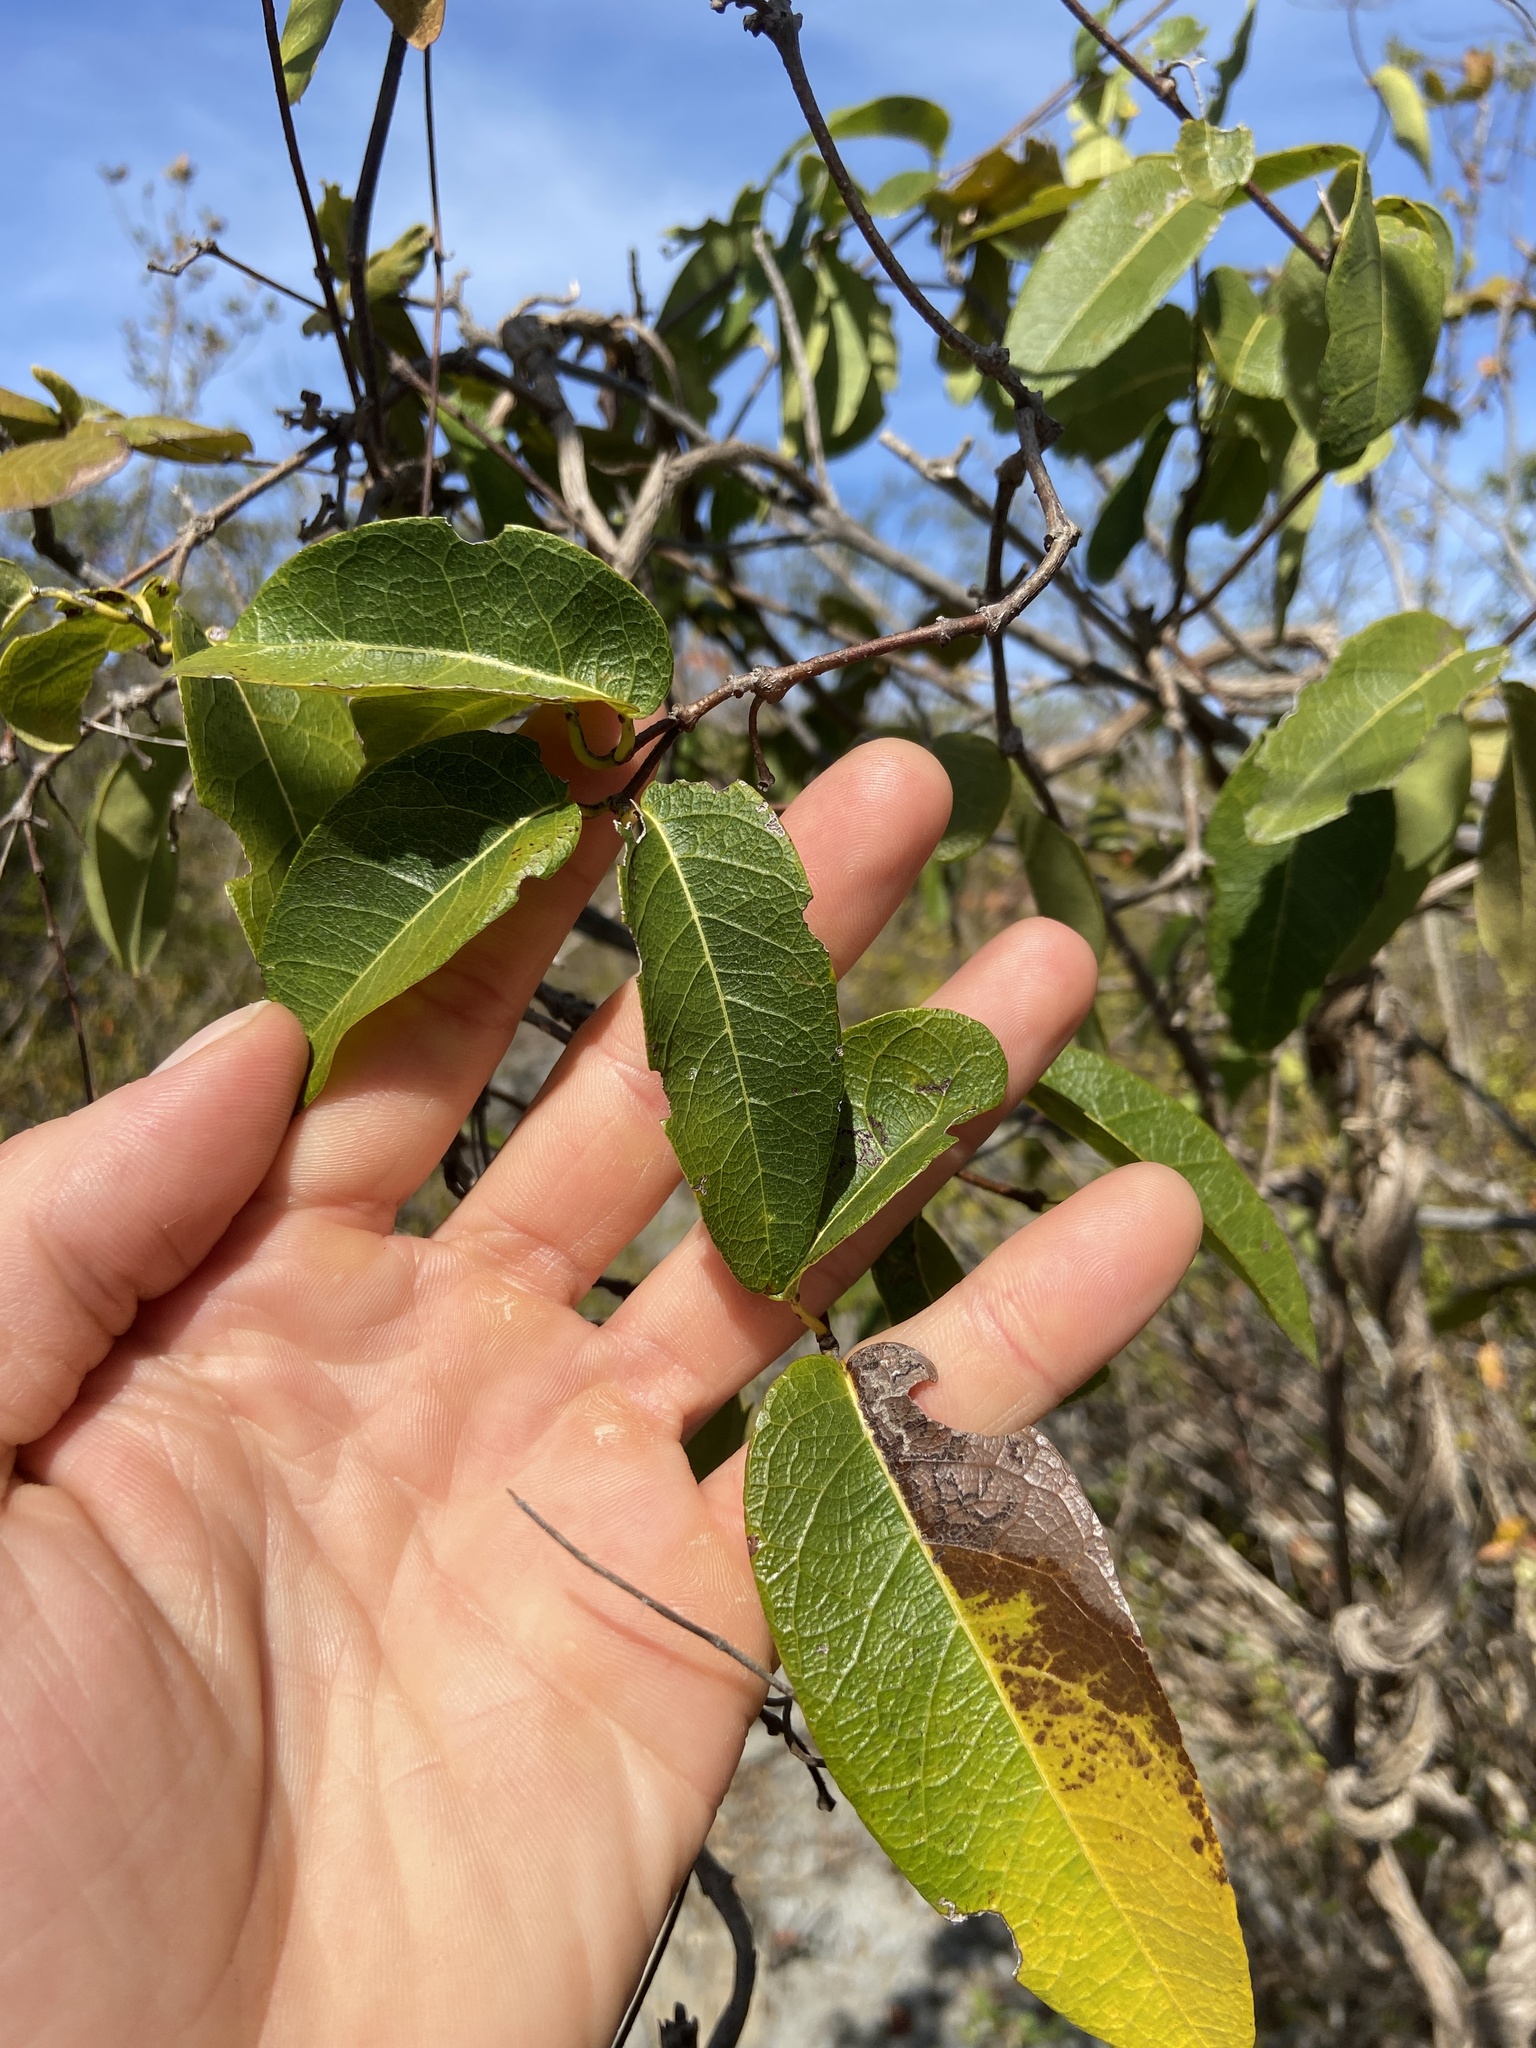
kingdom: Plantae
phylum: Tracheophyta
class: Magnoliopsida
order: Malpighiales
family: Malpighiaceae
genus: Stigmaphyllon
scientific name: Stigmaphyllon emarginatum
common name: Monarch amazonvine
